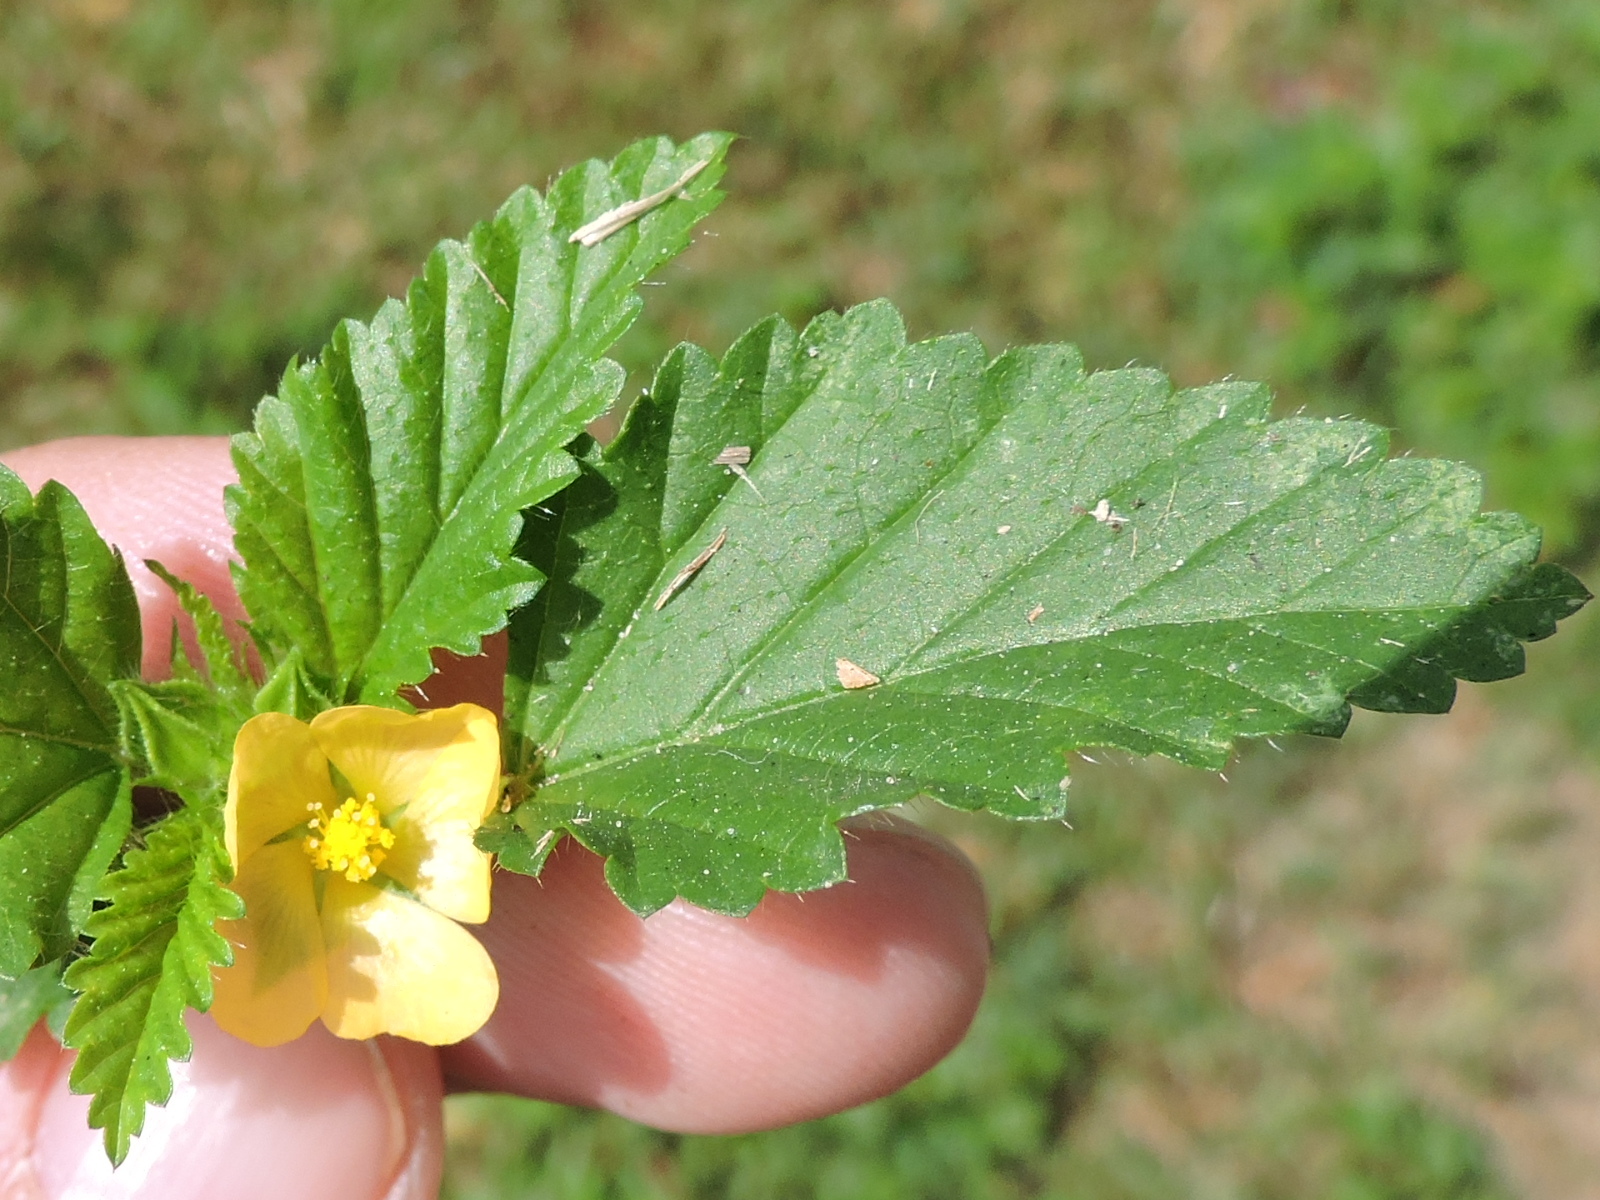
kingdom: Plantae
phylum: Tracheophyta
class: Magnoliopsida
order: Malvales
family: Malvaceae
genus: Malvastrum
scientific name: Malvastrum coromandelianum
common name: Threelobe false mallow
